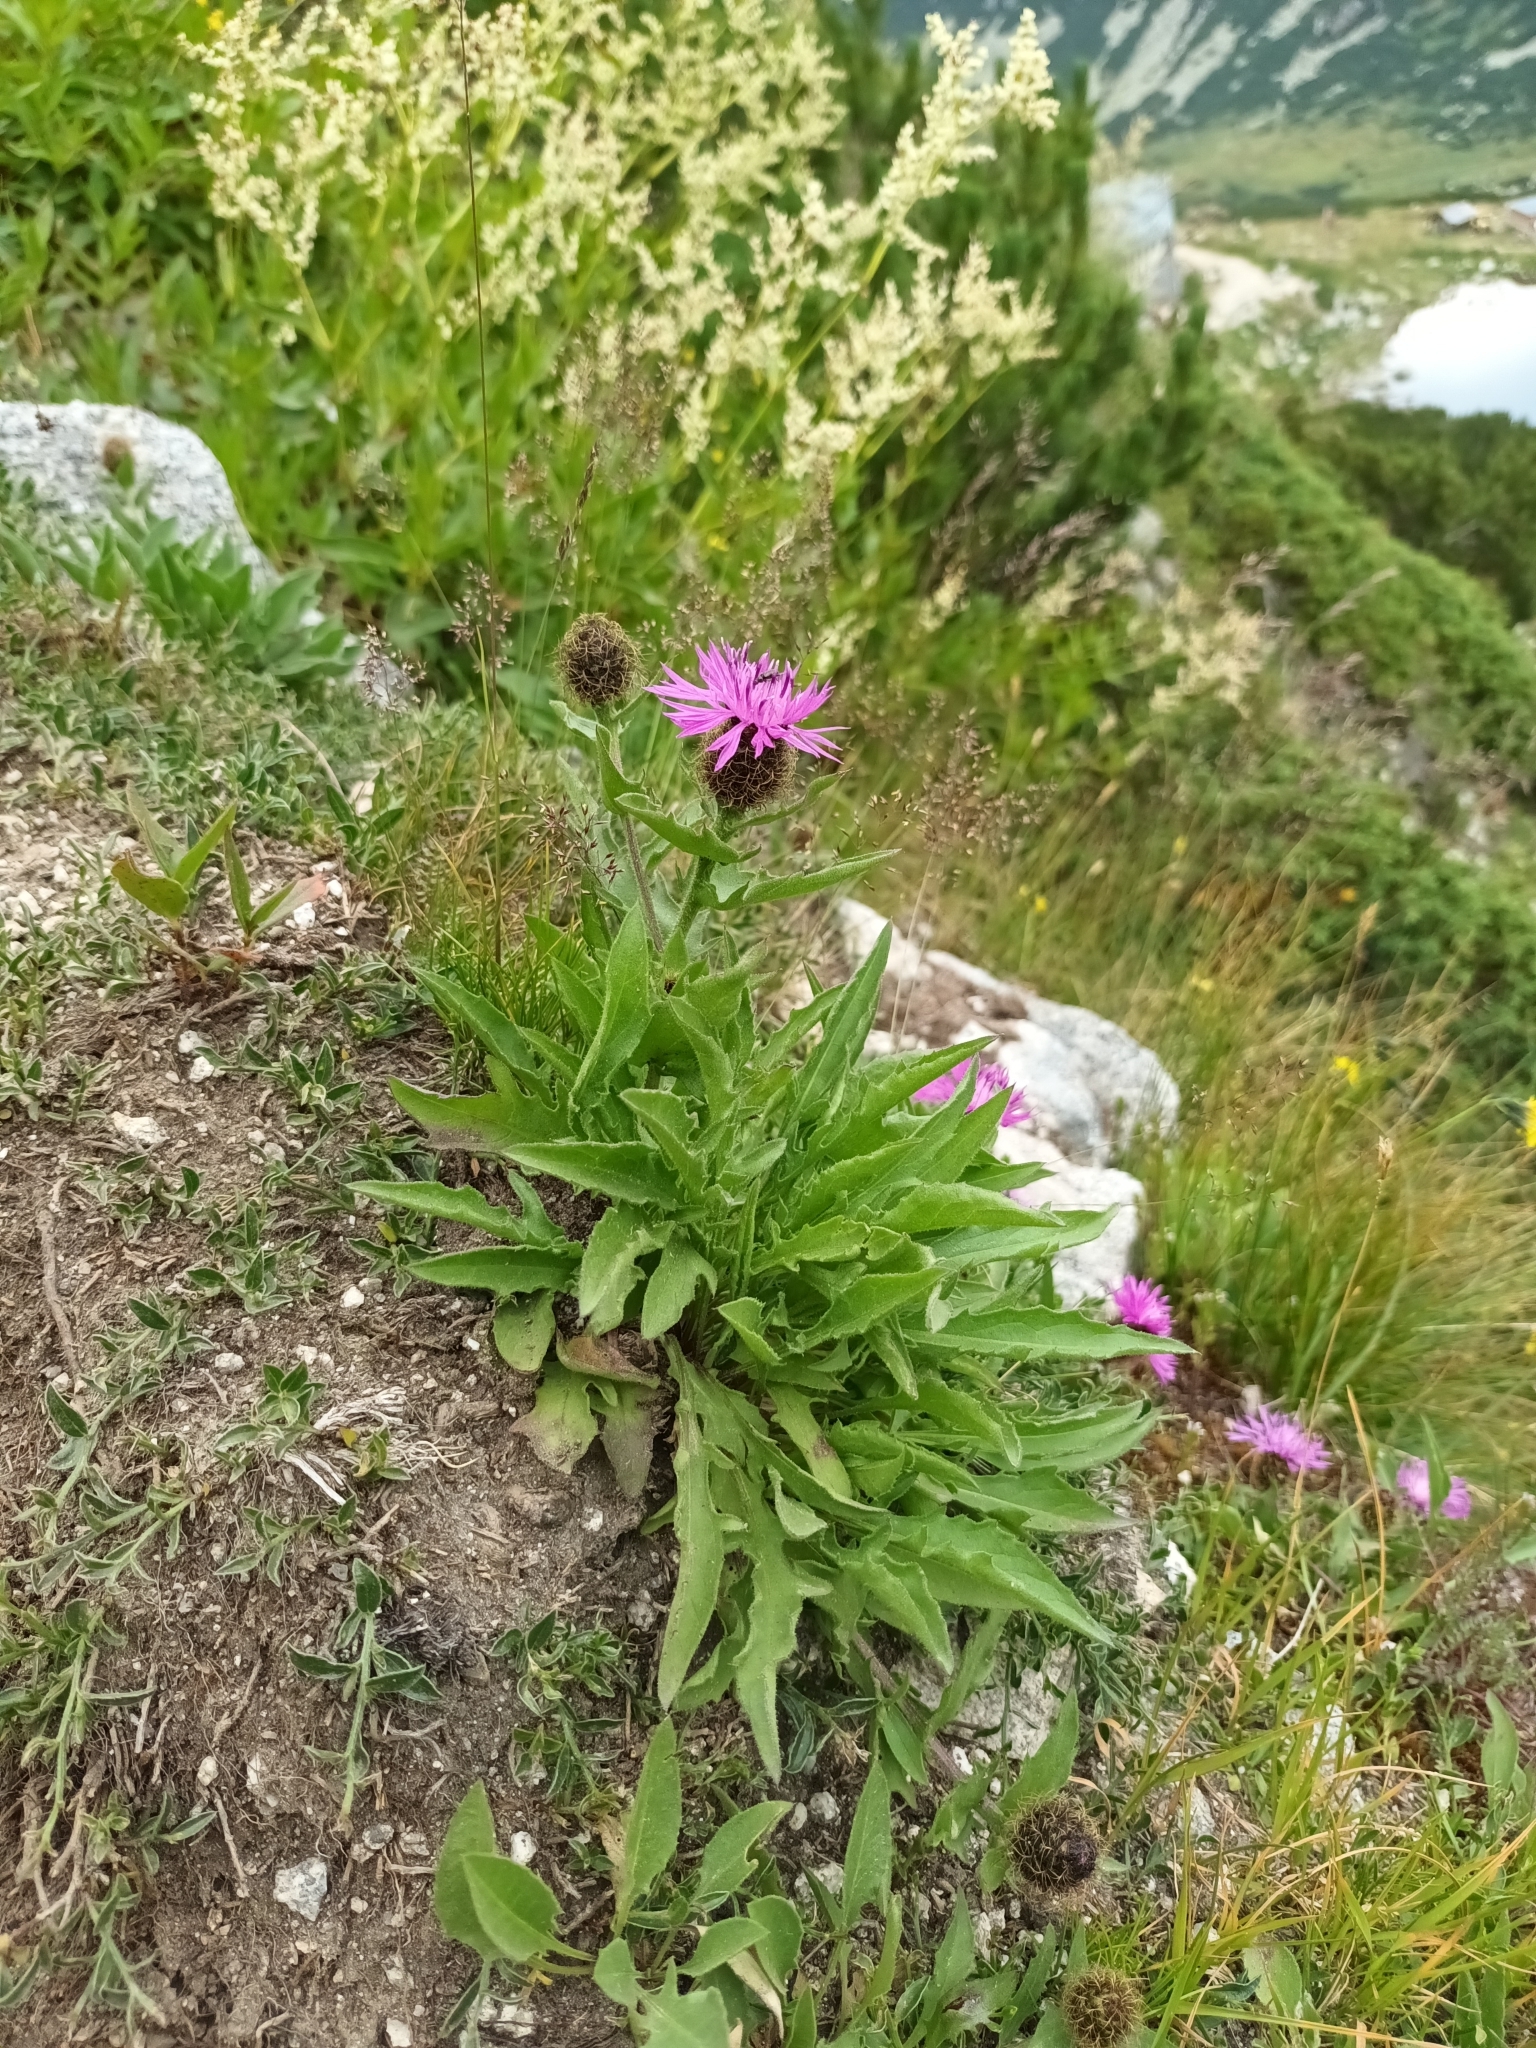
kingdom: Plantae
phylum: Tracheophyta
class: Magnoliopsida
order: Asterales
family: Asteraceae
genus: Centaurea
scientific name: Centaurea nervosa
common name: Singleflower knapweed
